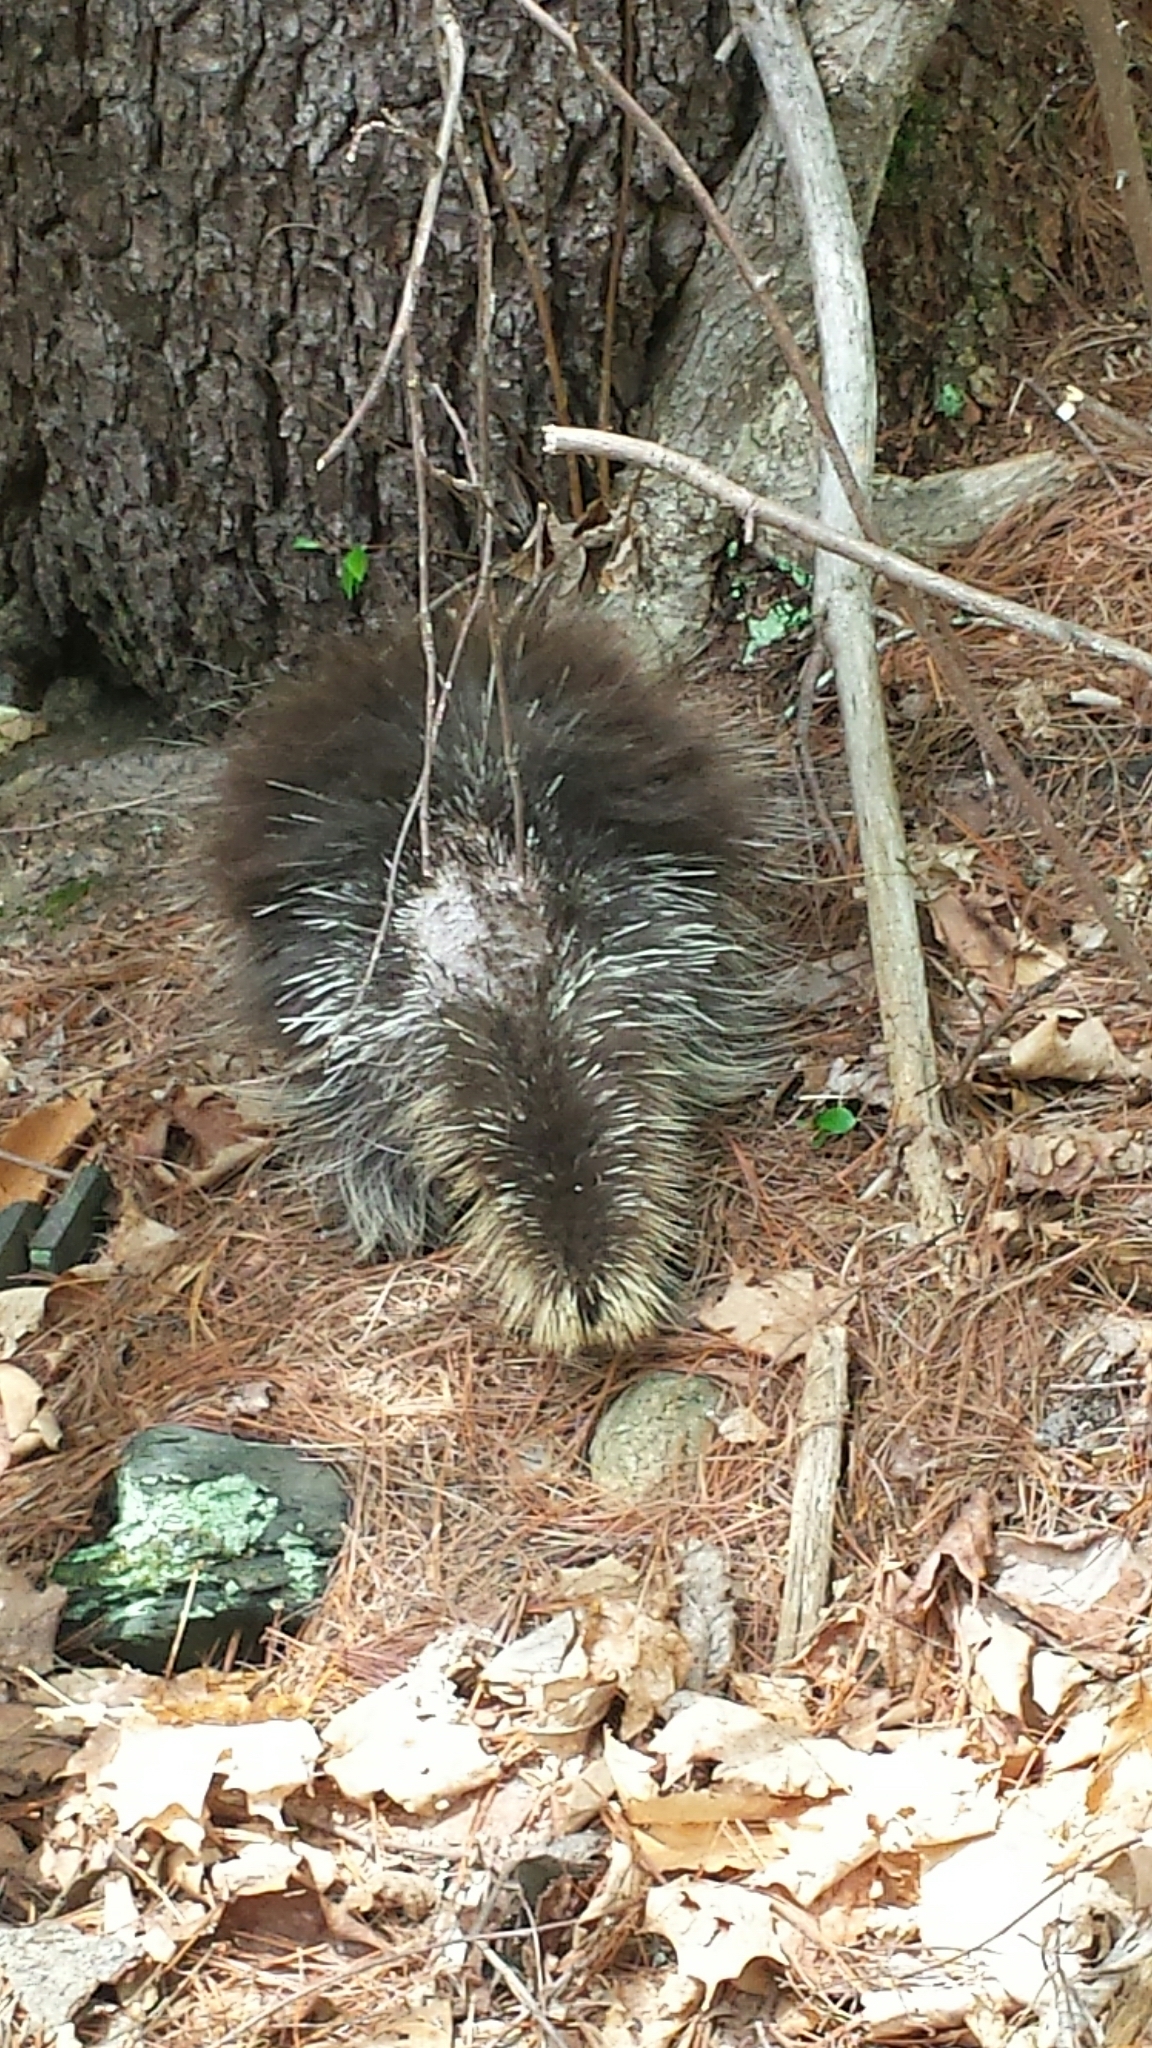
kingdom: Animalia
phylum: Chordata
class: Mammalia
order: Rodentia
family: Erethizontidae
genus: Erethizon
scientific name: Erethizon dorsatus
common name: North american porcupine
